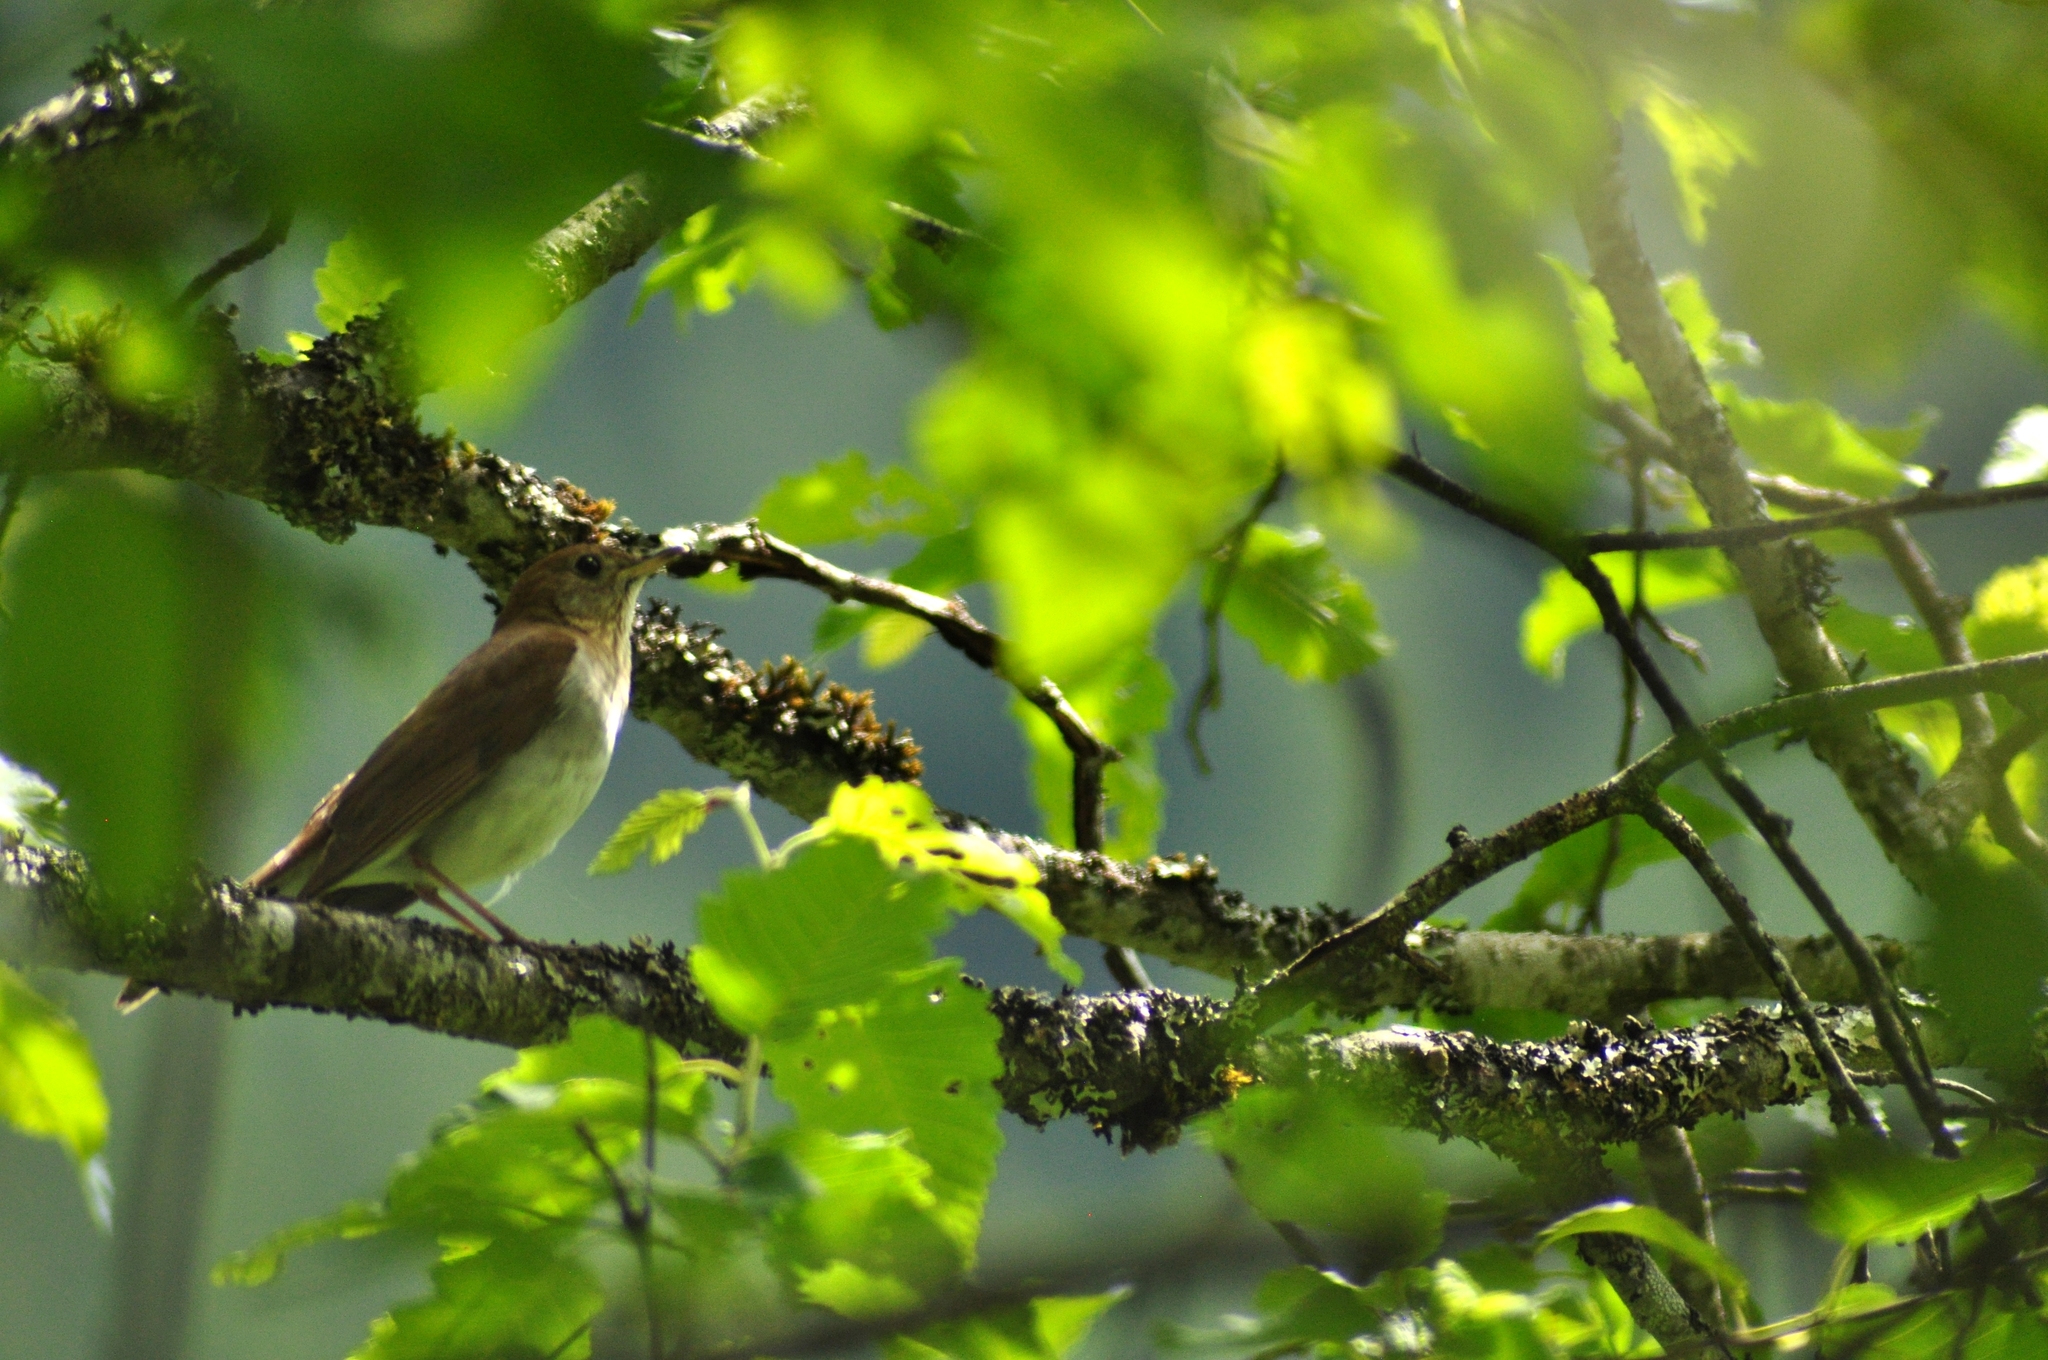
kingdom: Animalia
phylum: Chordata
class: Aves
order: Passeriformes
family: Turdidae
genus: Catharus
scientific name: Catharus fuscescens
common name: Veery
